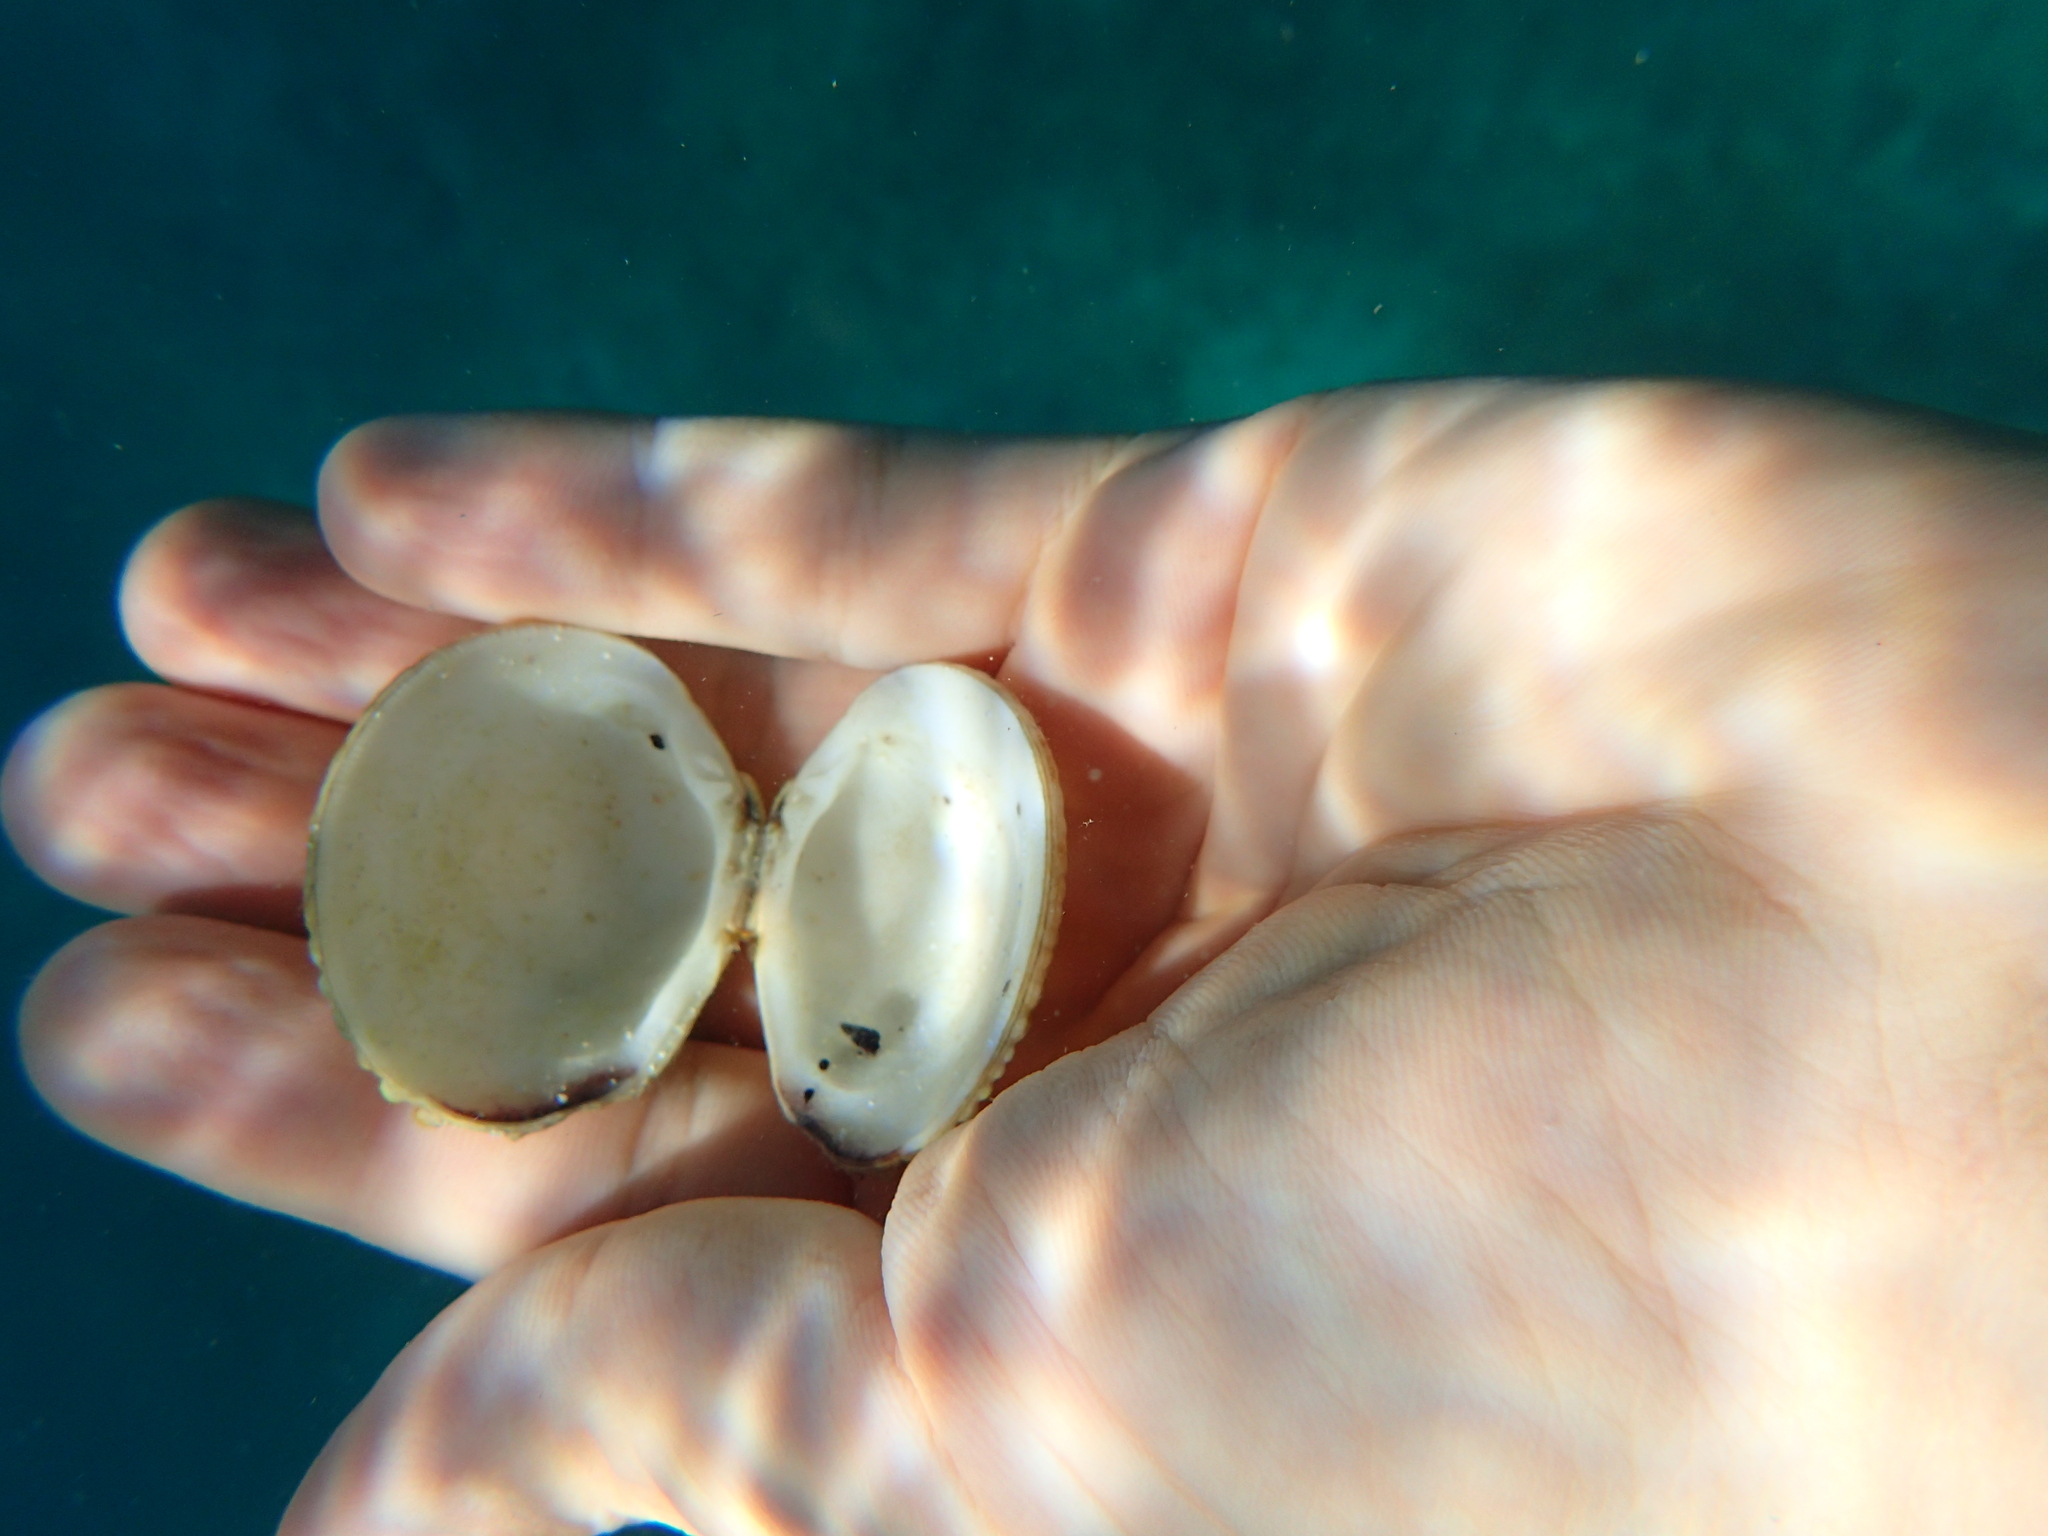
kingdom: Animalia
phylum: Mollusca
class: Bivalvia
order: Venerida
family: Veneridae
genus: Venus
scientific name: Venus verrucosa
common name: Warty venus
